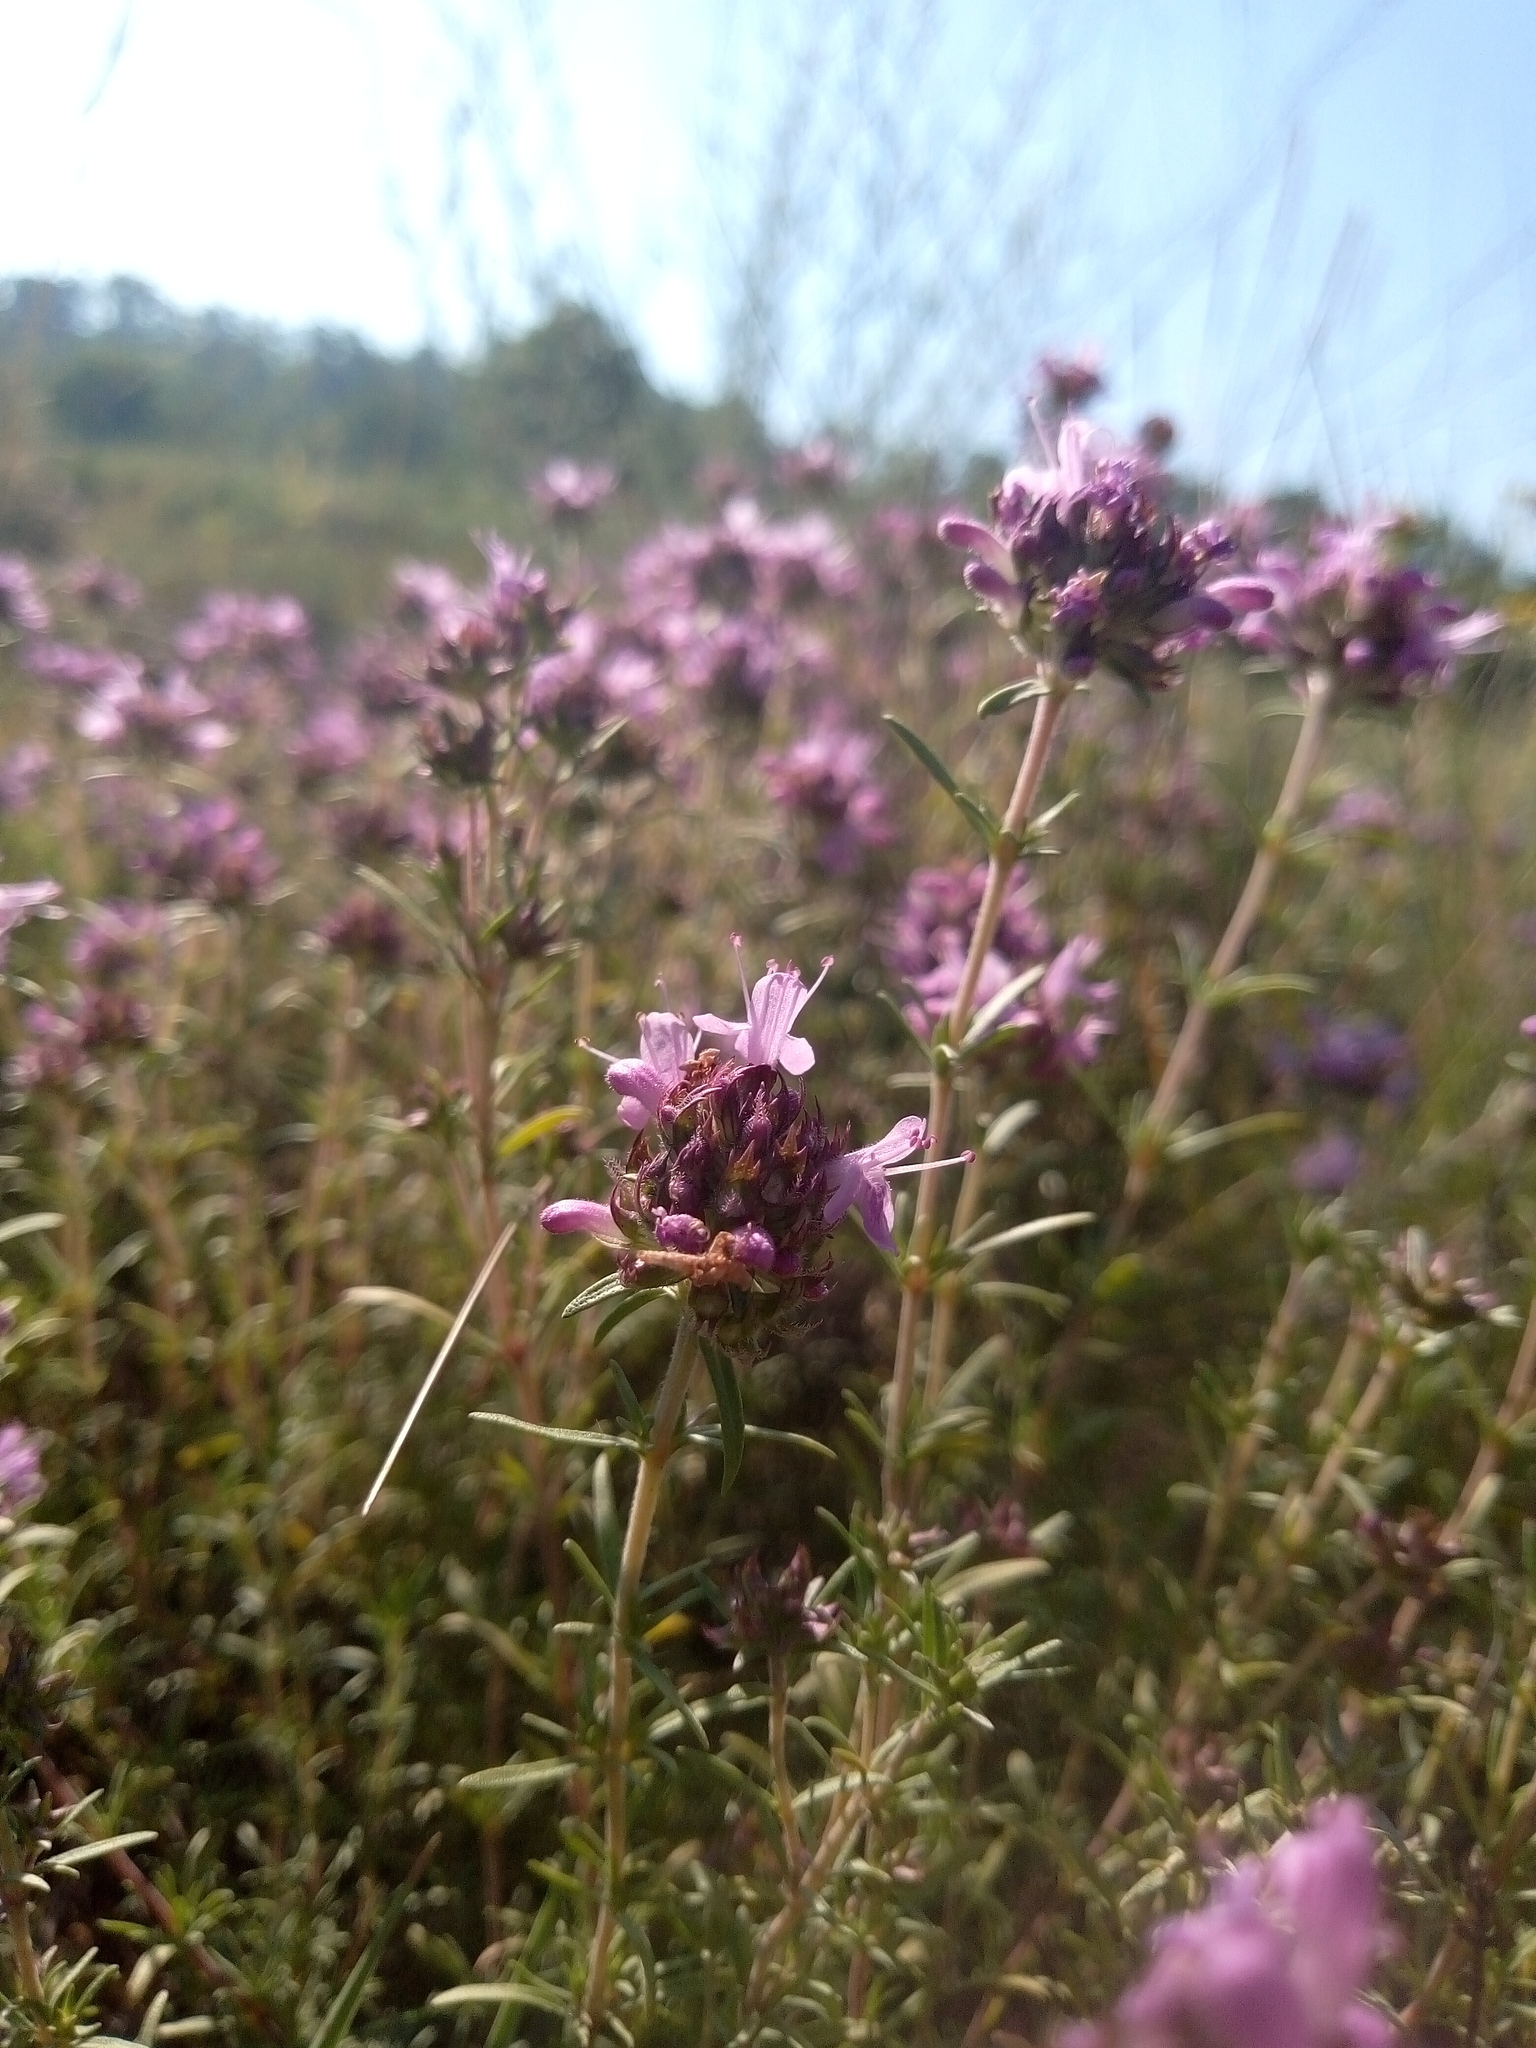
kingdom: Plantae
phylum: Tracheophyta
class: Magnoliopsida
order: Lamiales
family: Lamiaceae
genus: Thymus
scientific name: Thymus pallasianus
